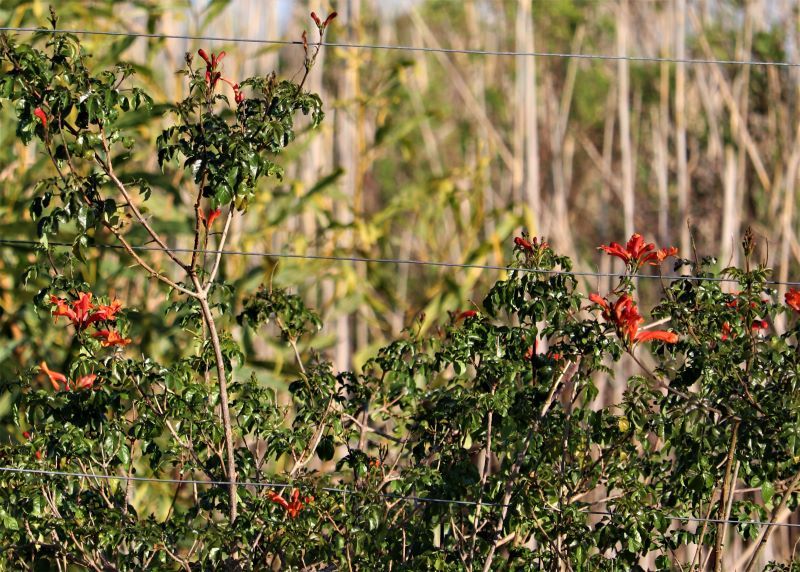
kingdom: Plantae
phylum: Tracheophyta
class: Magnoliopsida
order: Lamiales
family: Bignoniaceae
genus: Tecomaria
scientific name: Tecomaria capensis
